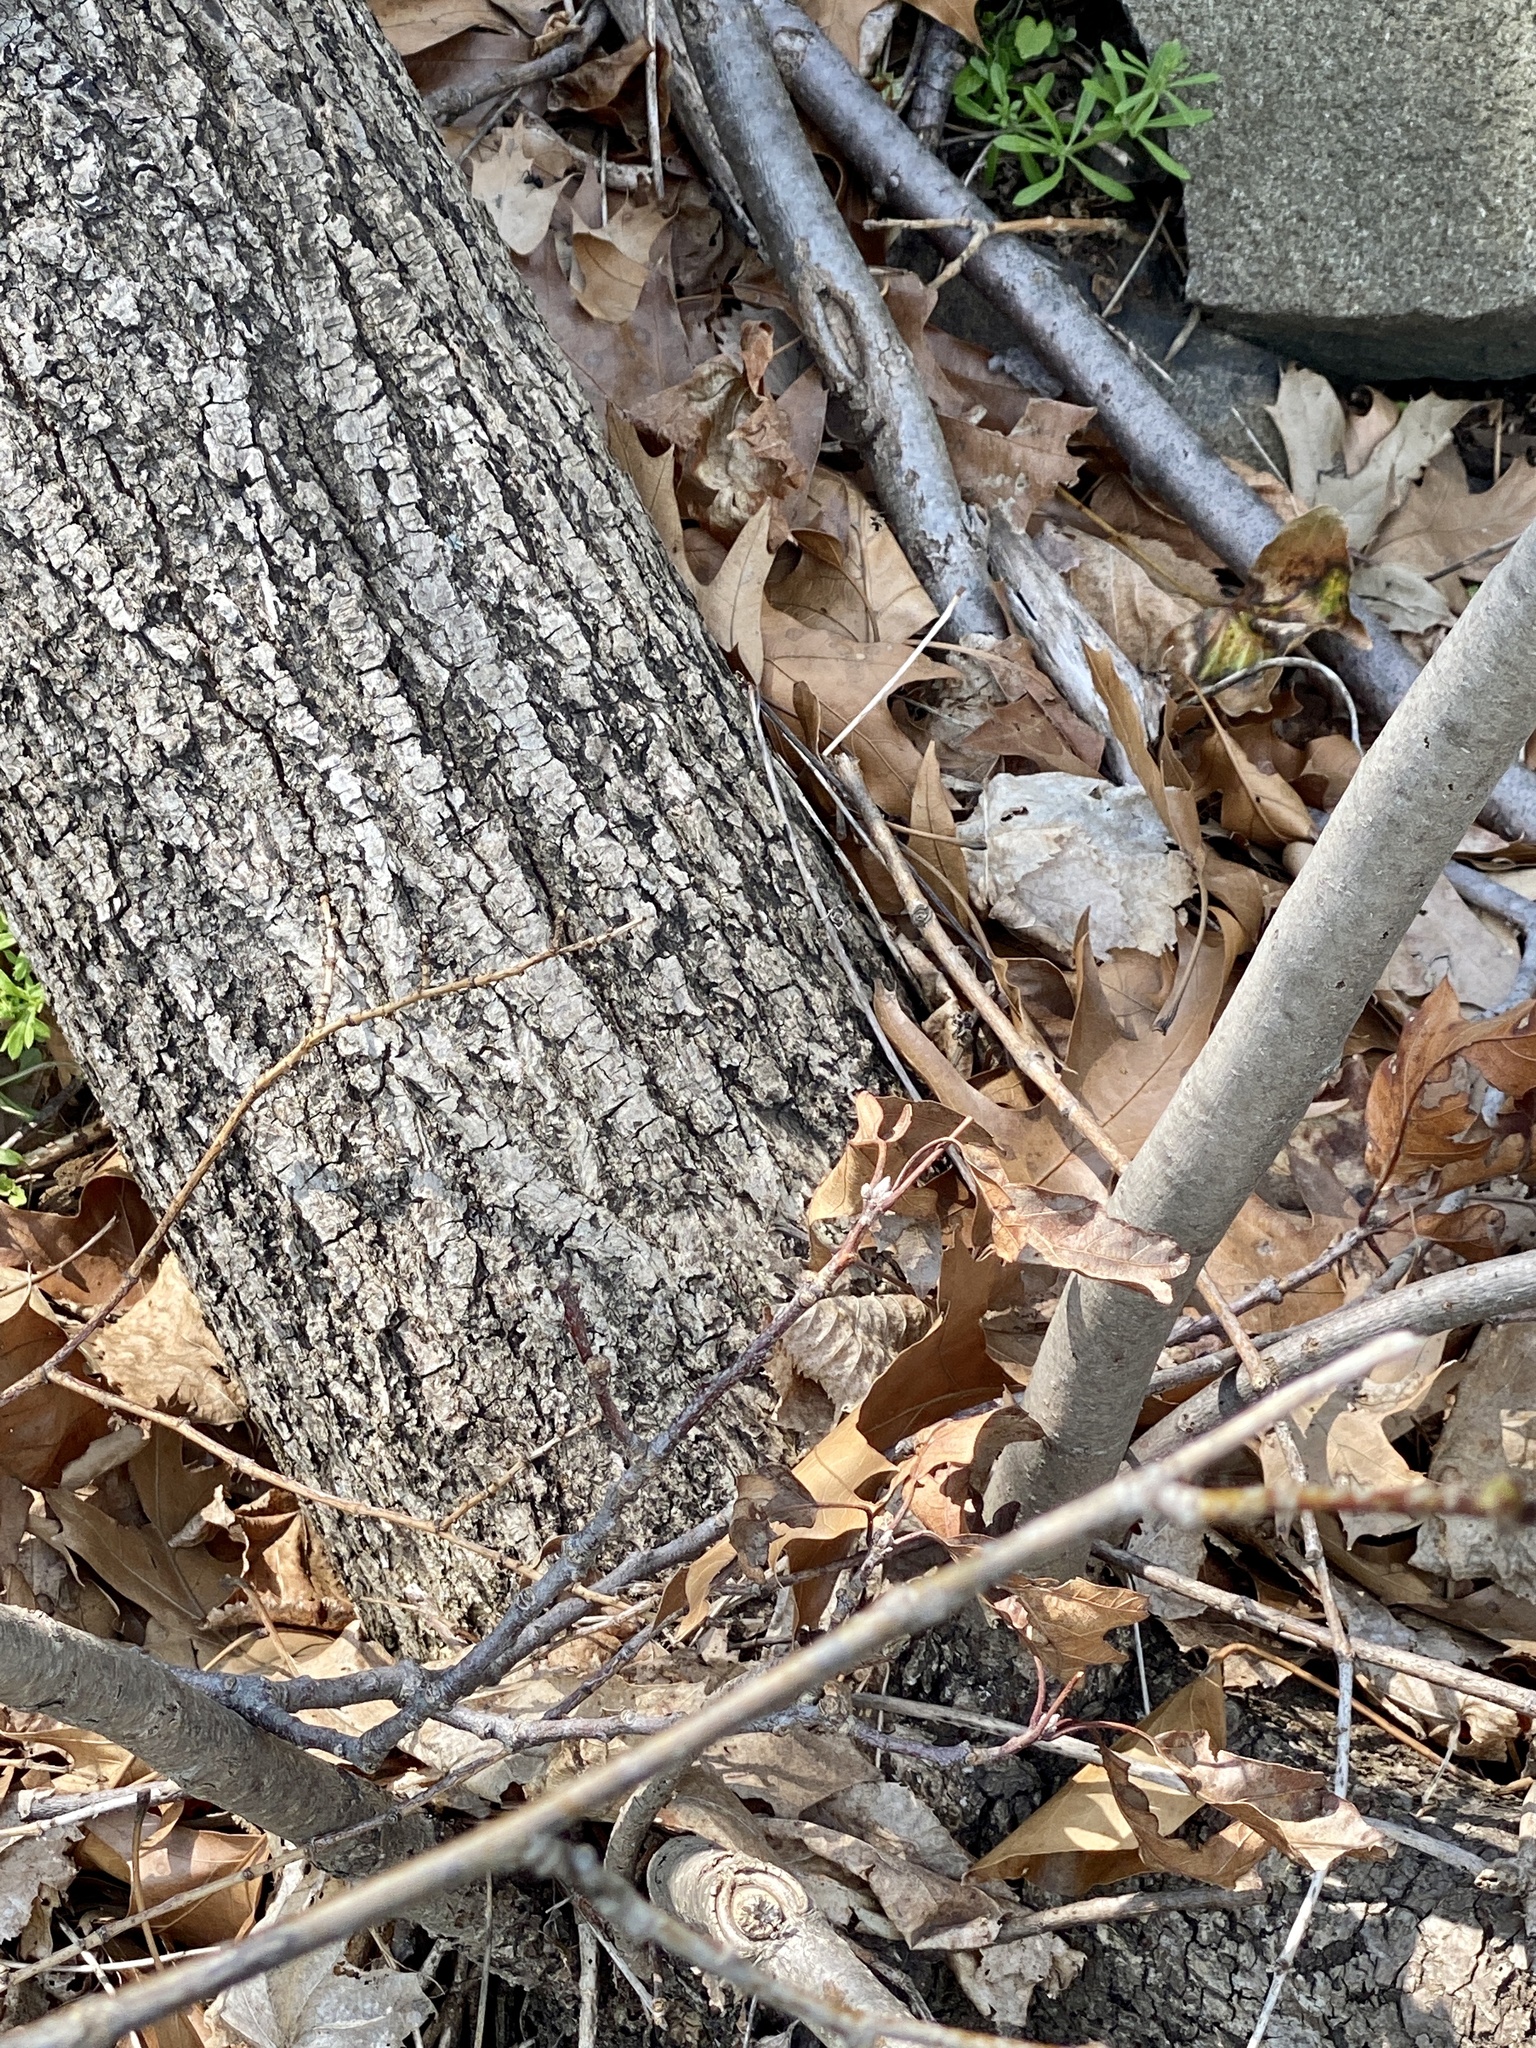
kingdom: Plantae
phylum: Tracheophyta
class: Magnoliopsida
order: Malvales
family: Malvaceae
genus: Tilia
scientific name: Tilia americana
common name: Basswood
